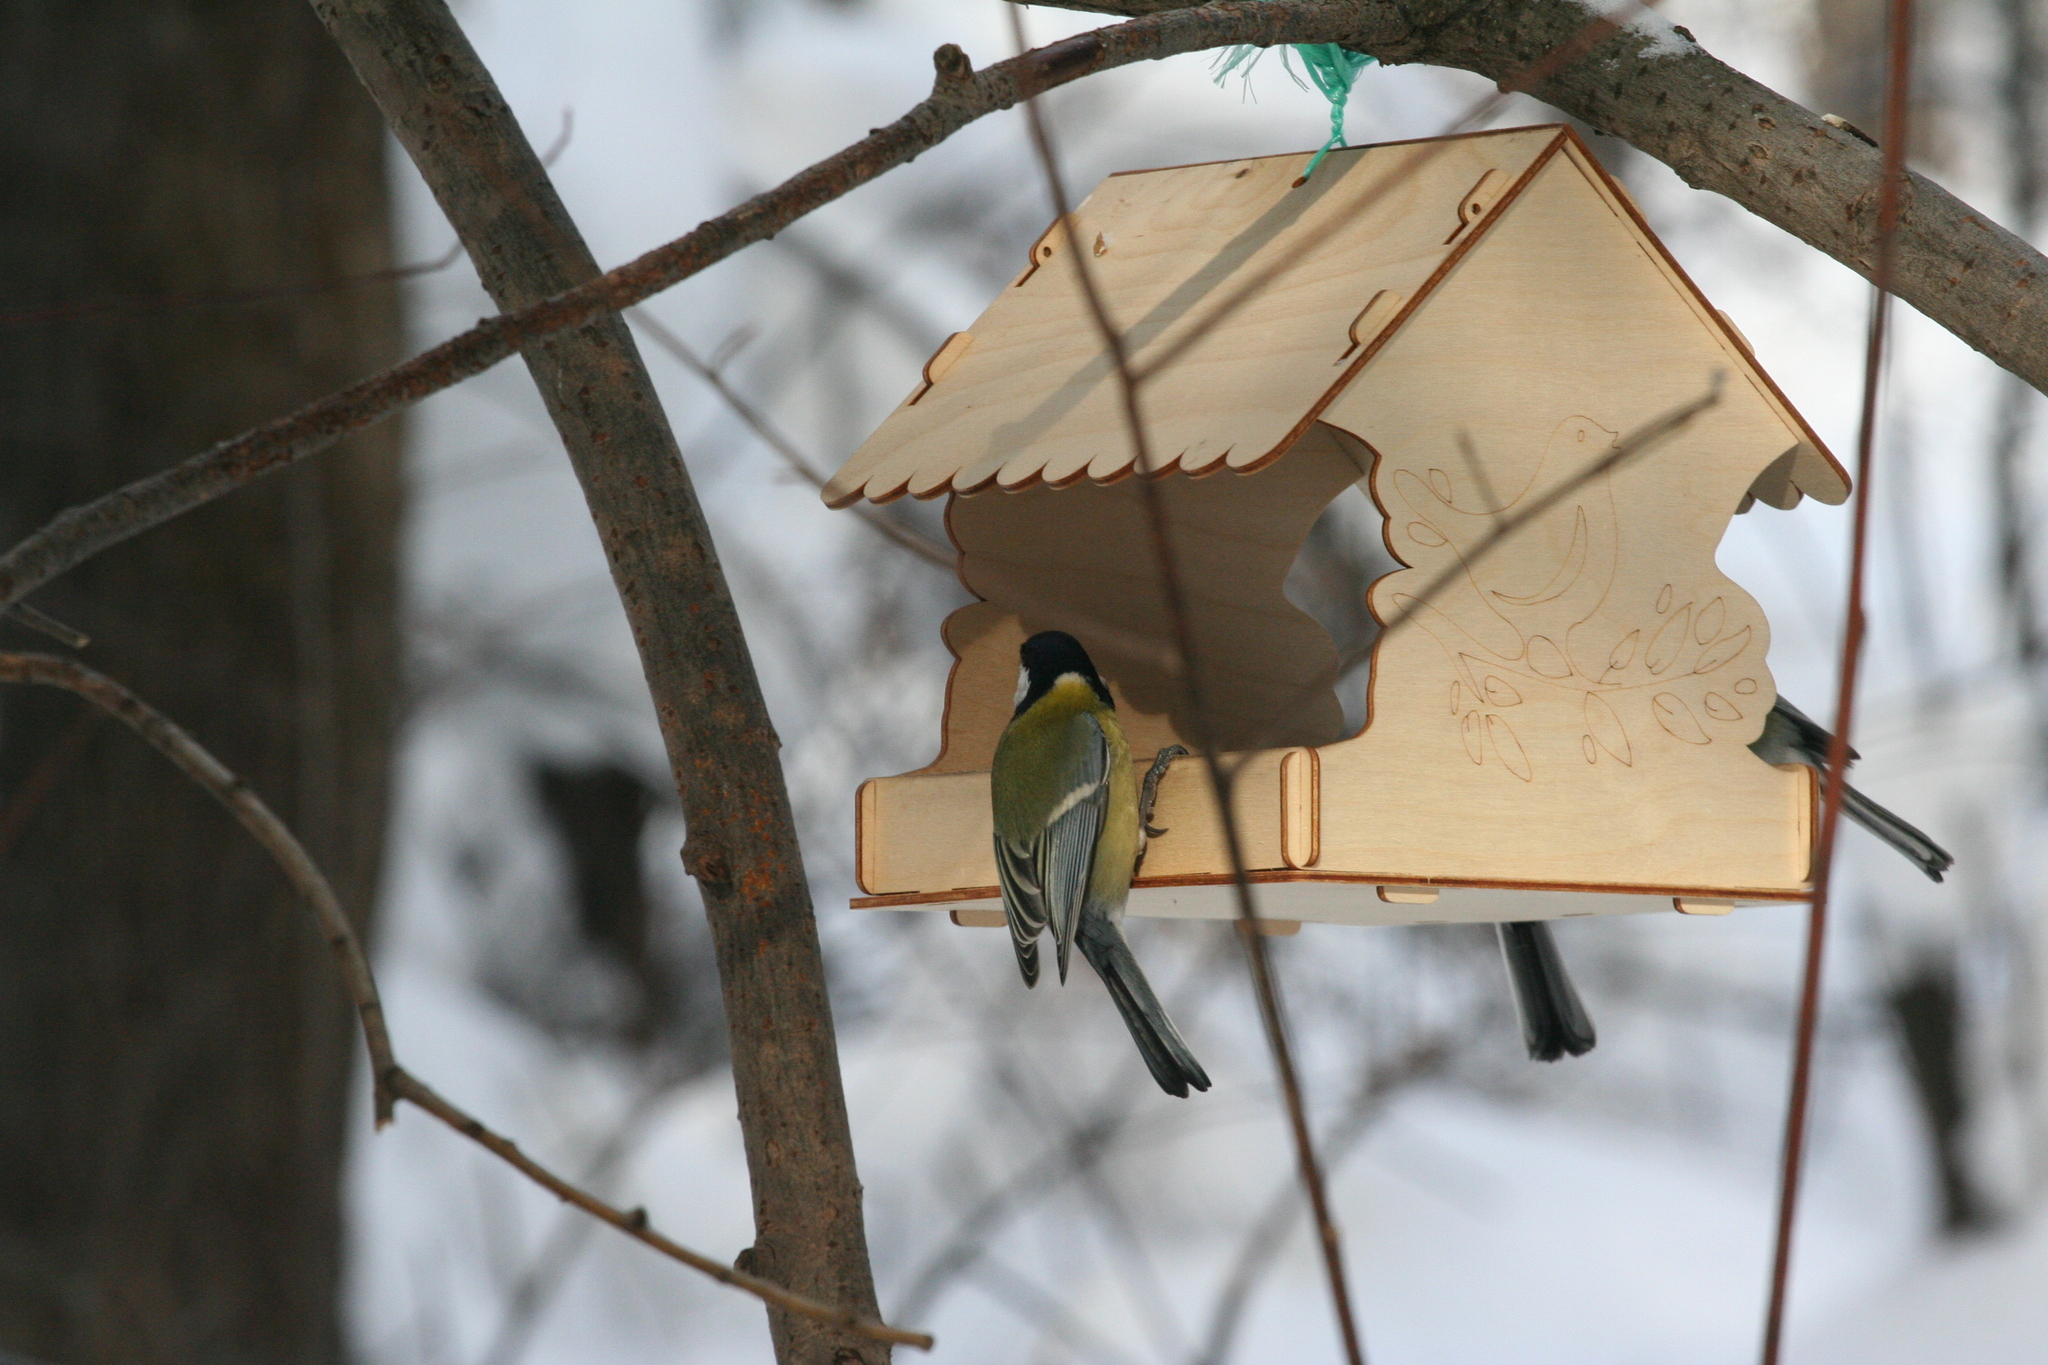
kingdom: Animalia
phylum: Chordata
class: Aves
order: Passeriformes
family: Paridae
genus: Parus
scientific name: Parus major
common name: Great tit
